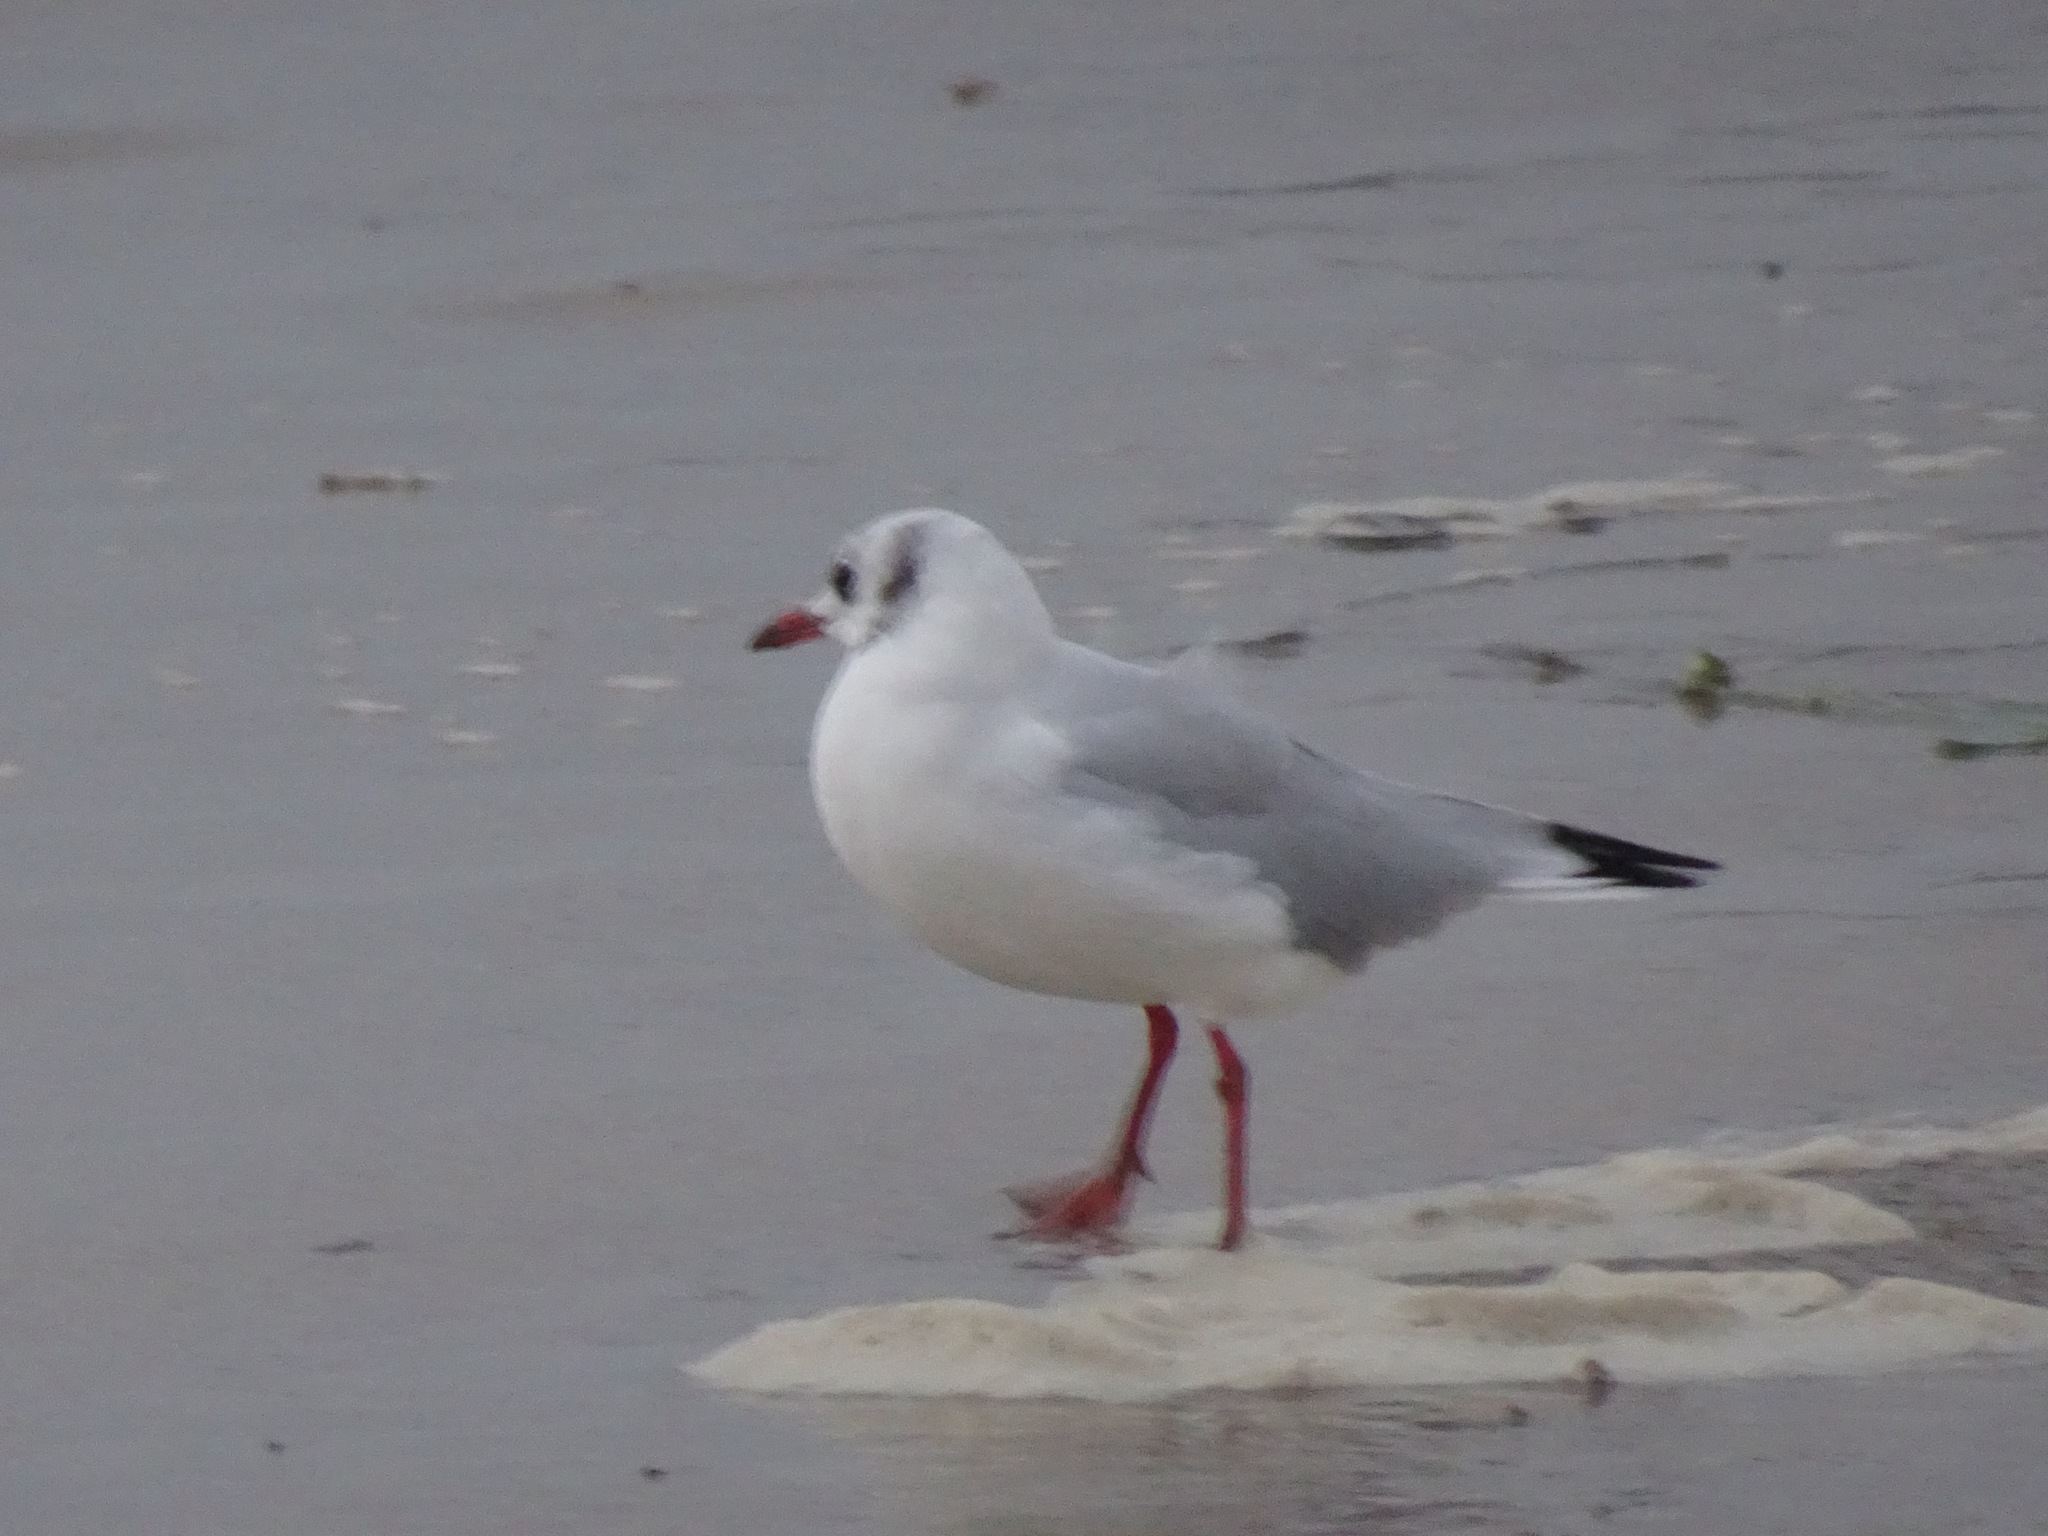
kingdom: Animalia
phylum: Chordata
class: Aves
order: Charadriiformes
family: Laridae
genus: Chroicocephalus
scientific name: Chroicocephalus ridibundus
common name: Black-headed gull
